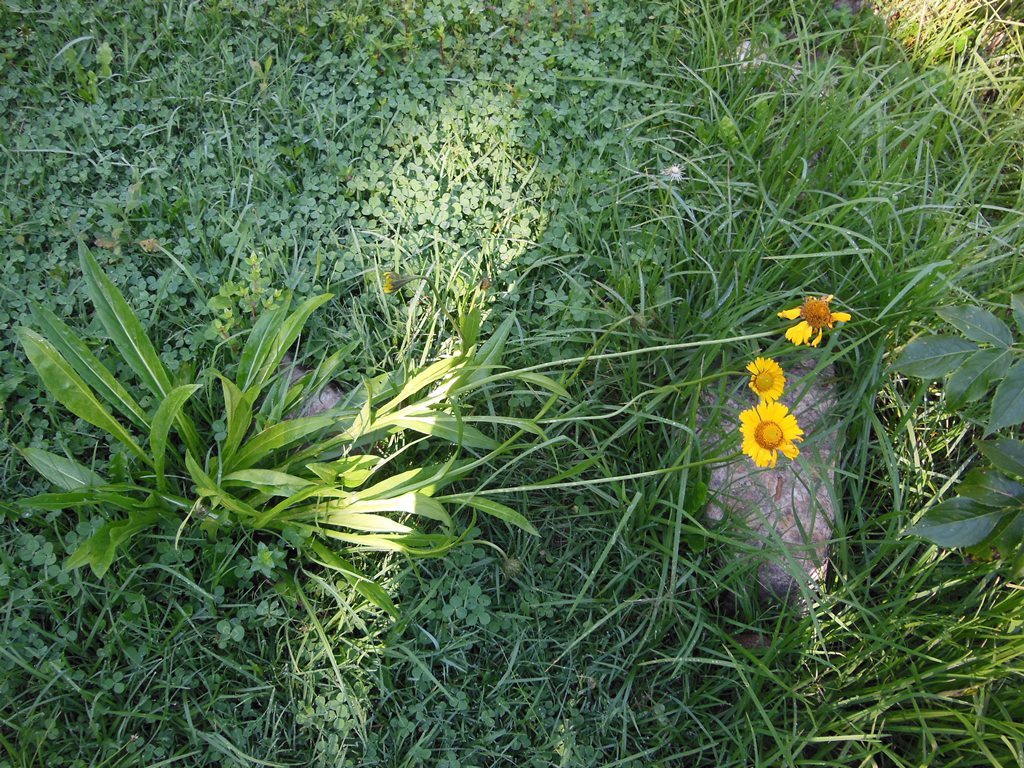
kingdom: Plantae
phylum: Tracheophyta
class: Magnoliopsida
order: Asterales
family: Asteraceae
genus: Helenium
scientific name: Helenium scorzonerifolium
